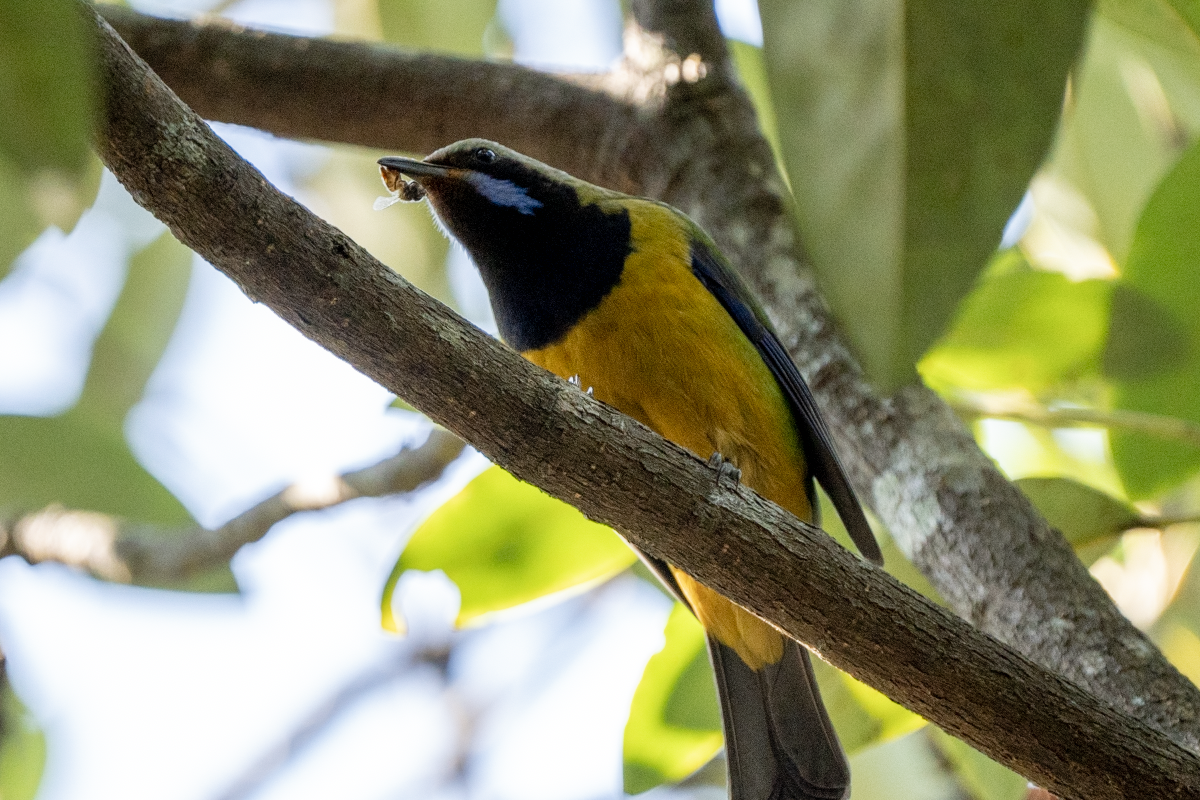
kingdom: Animalia
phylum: Chordata
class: Aves
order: Passeriformes
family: Chloropseidae
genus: Chloropsis
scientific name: Chloropsis hardwickii
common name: Orange-bellied leafbird
